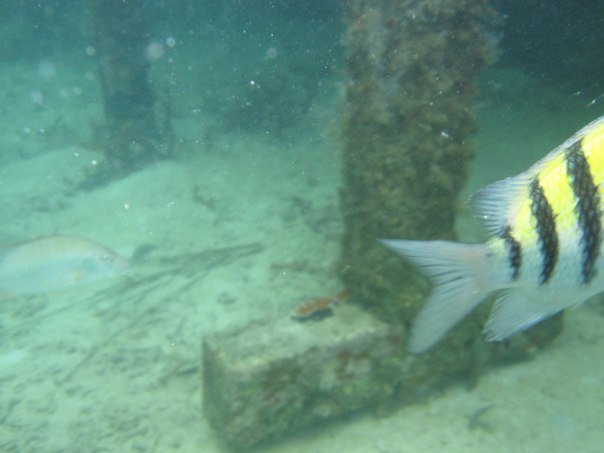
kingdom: Animalia
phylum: Chordata
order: Perciformes
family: Pomacentridae
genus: Abudefduf
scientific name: Abudefduf saxatilis
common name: Sergeant major
